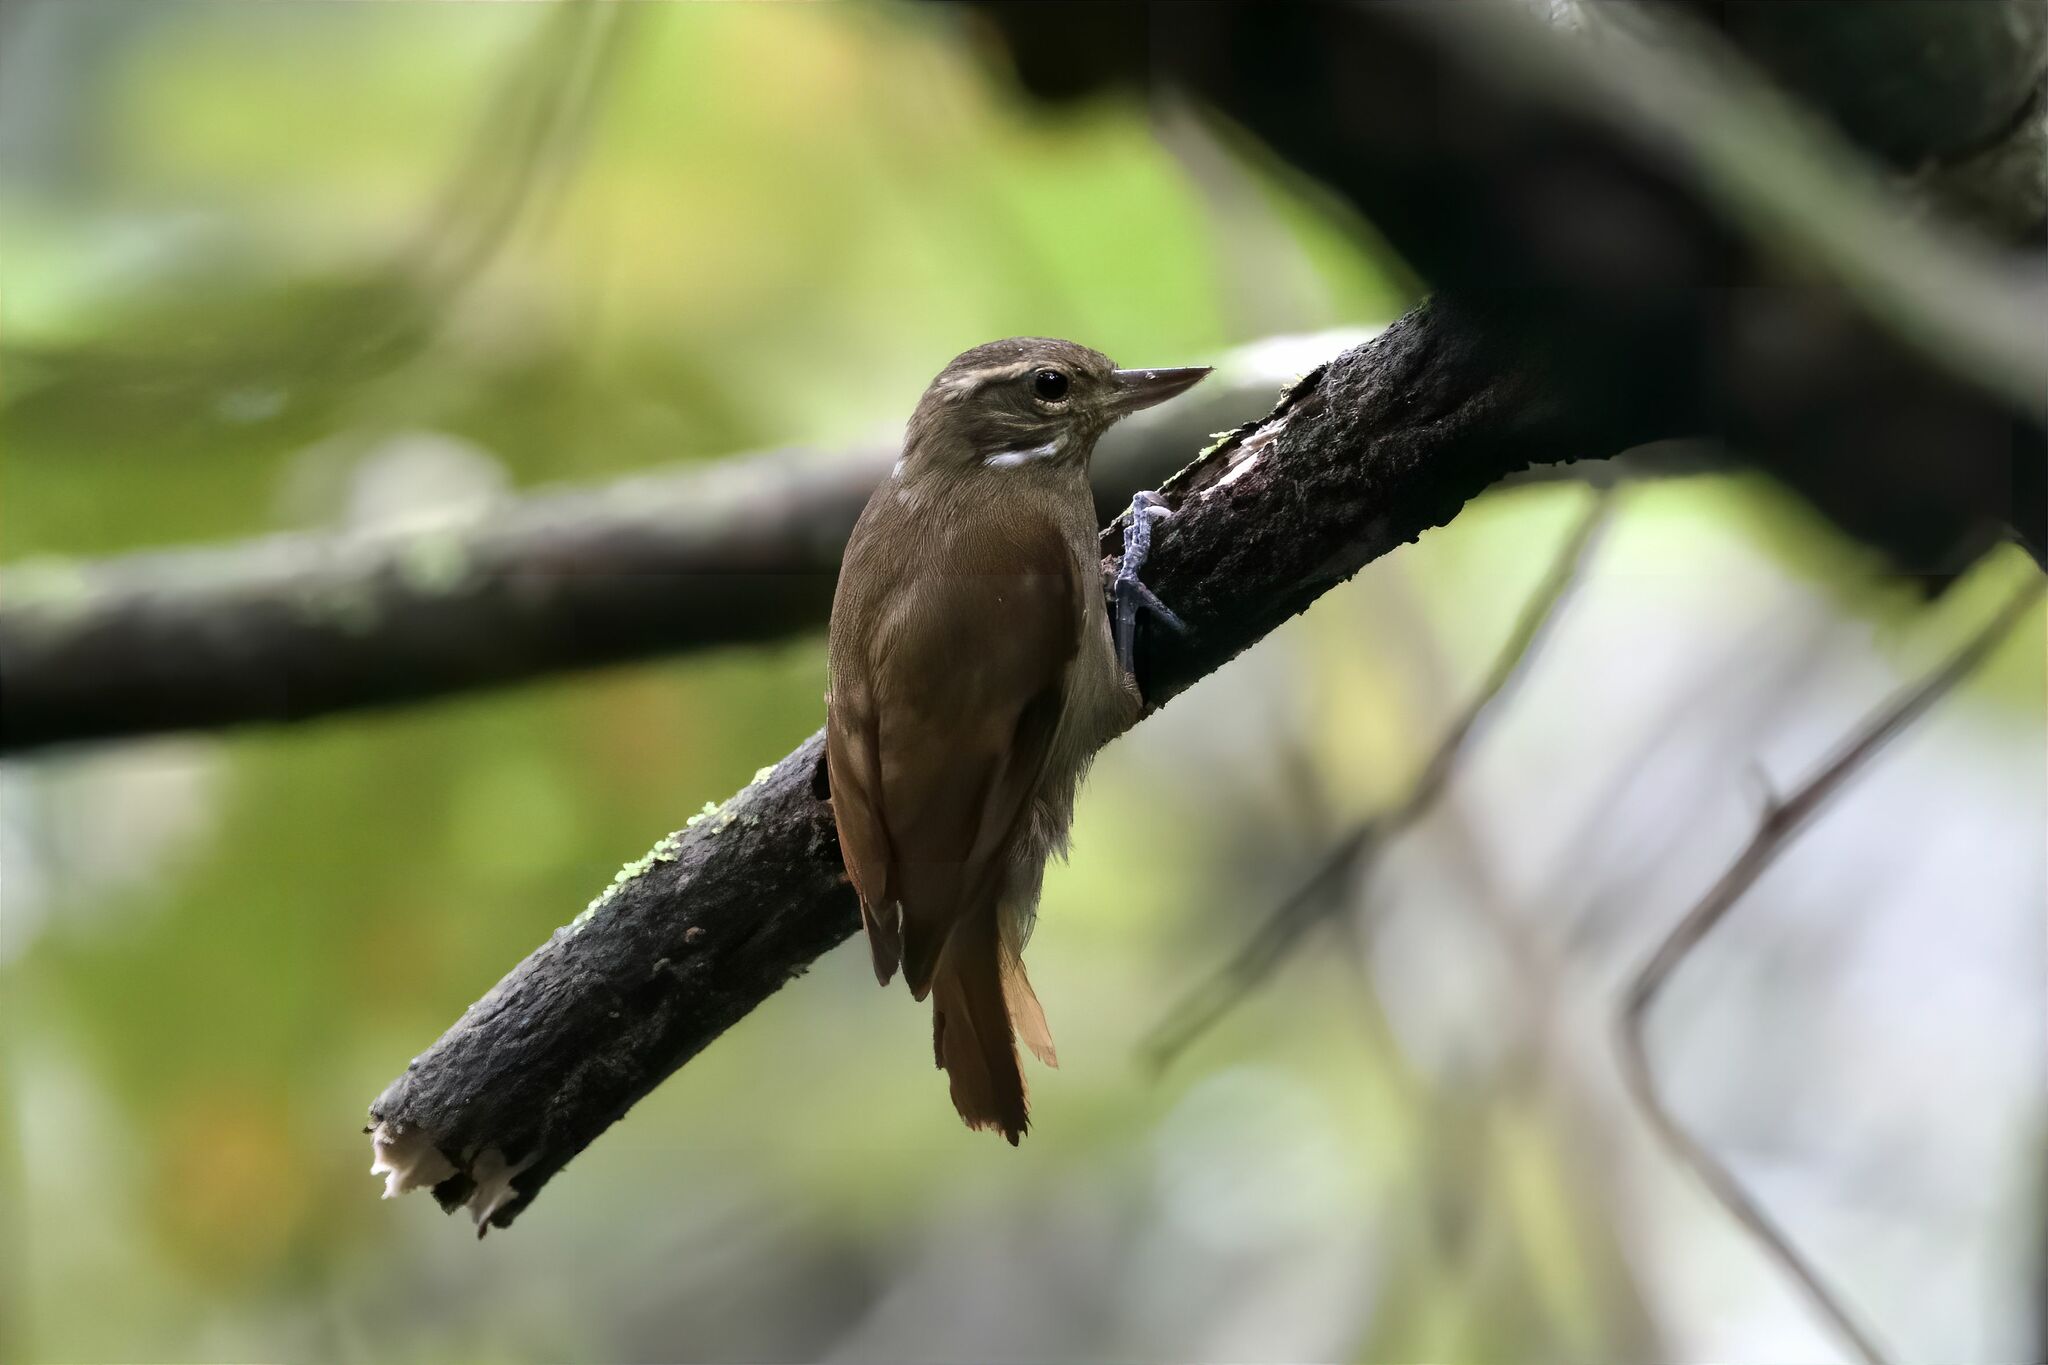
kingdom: Animalia
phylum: Chordata
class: Aves
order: Passeriformes
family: Furnariidae
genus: Xenops
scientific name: Xenops minutus
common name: Plain xenops
